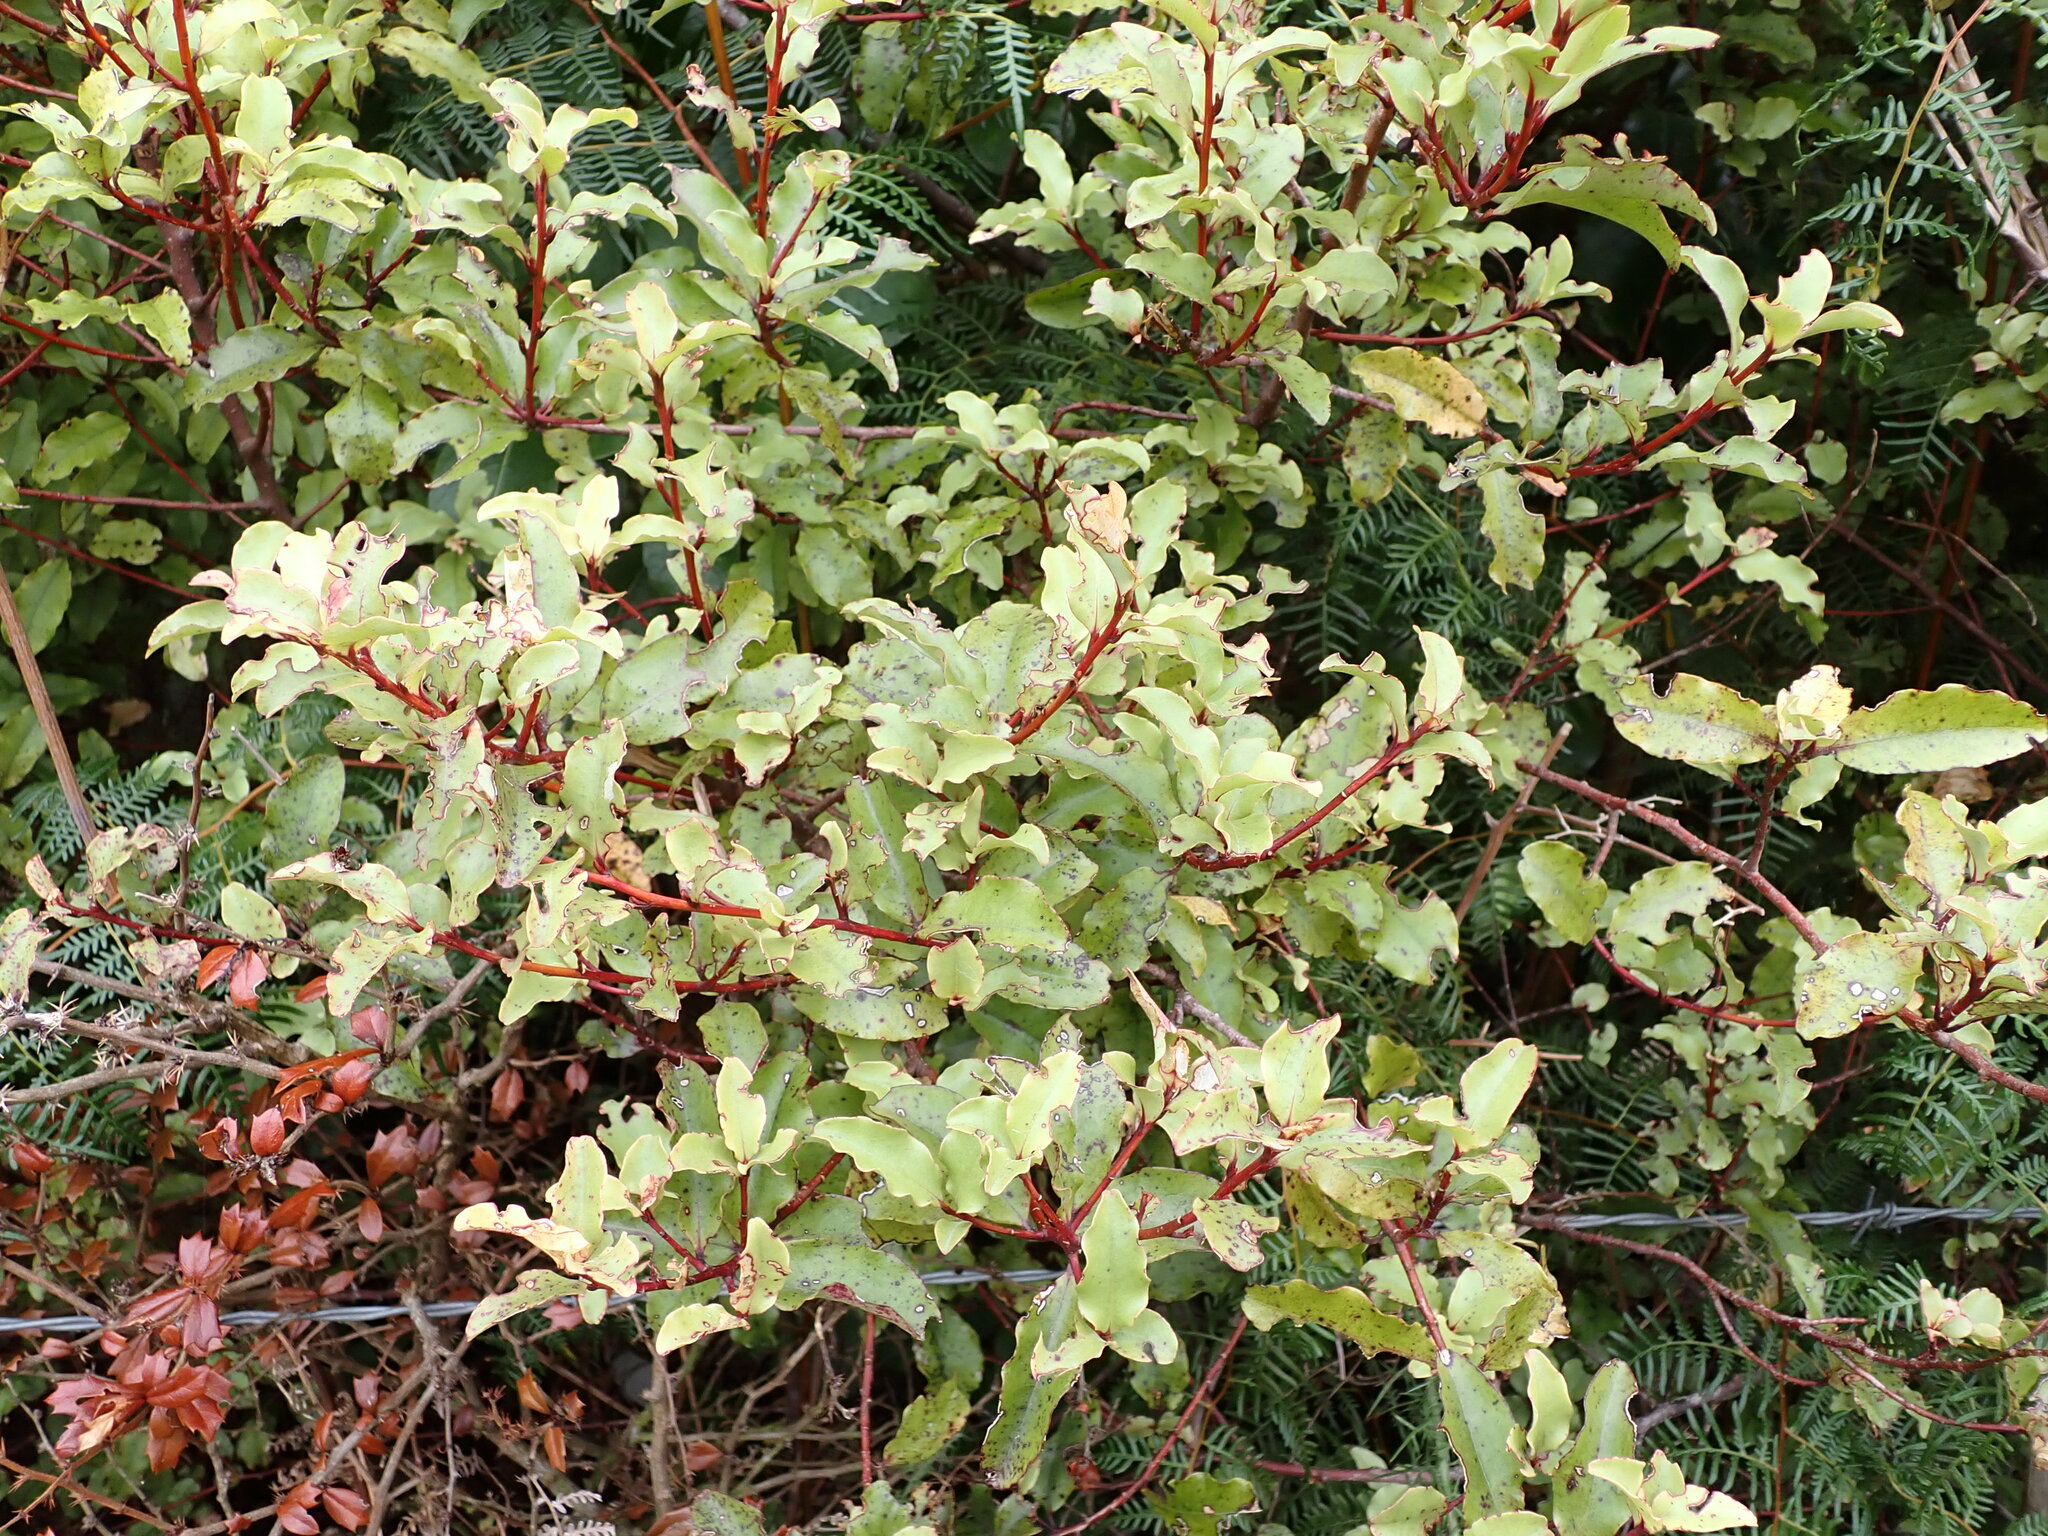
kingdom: Plantae
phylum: Tracheophyta
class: Magnoliopsida
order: Ericales
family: Primulaceae
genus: Myrsine
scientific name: Myrsine australis
